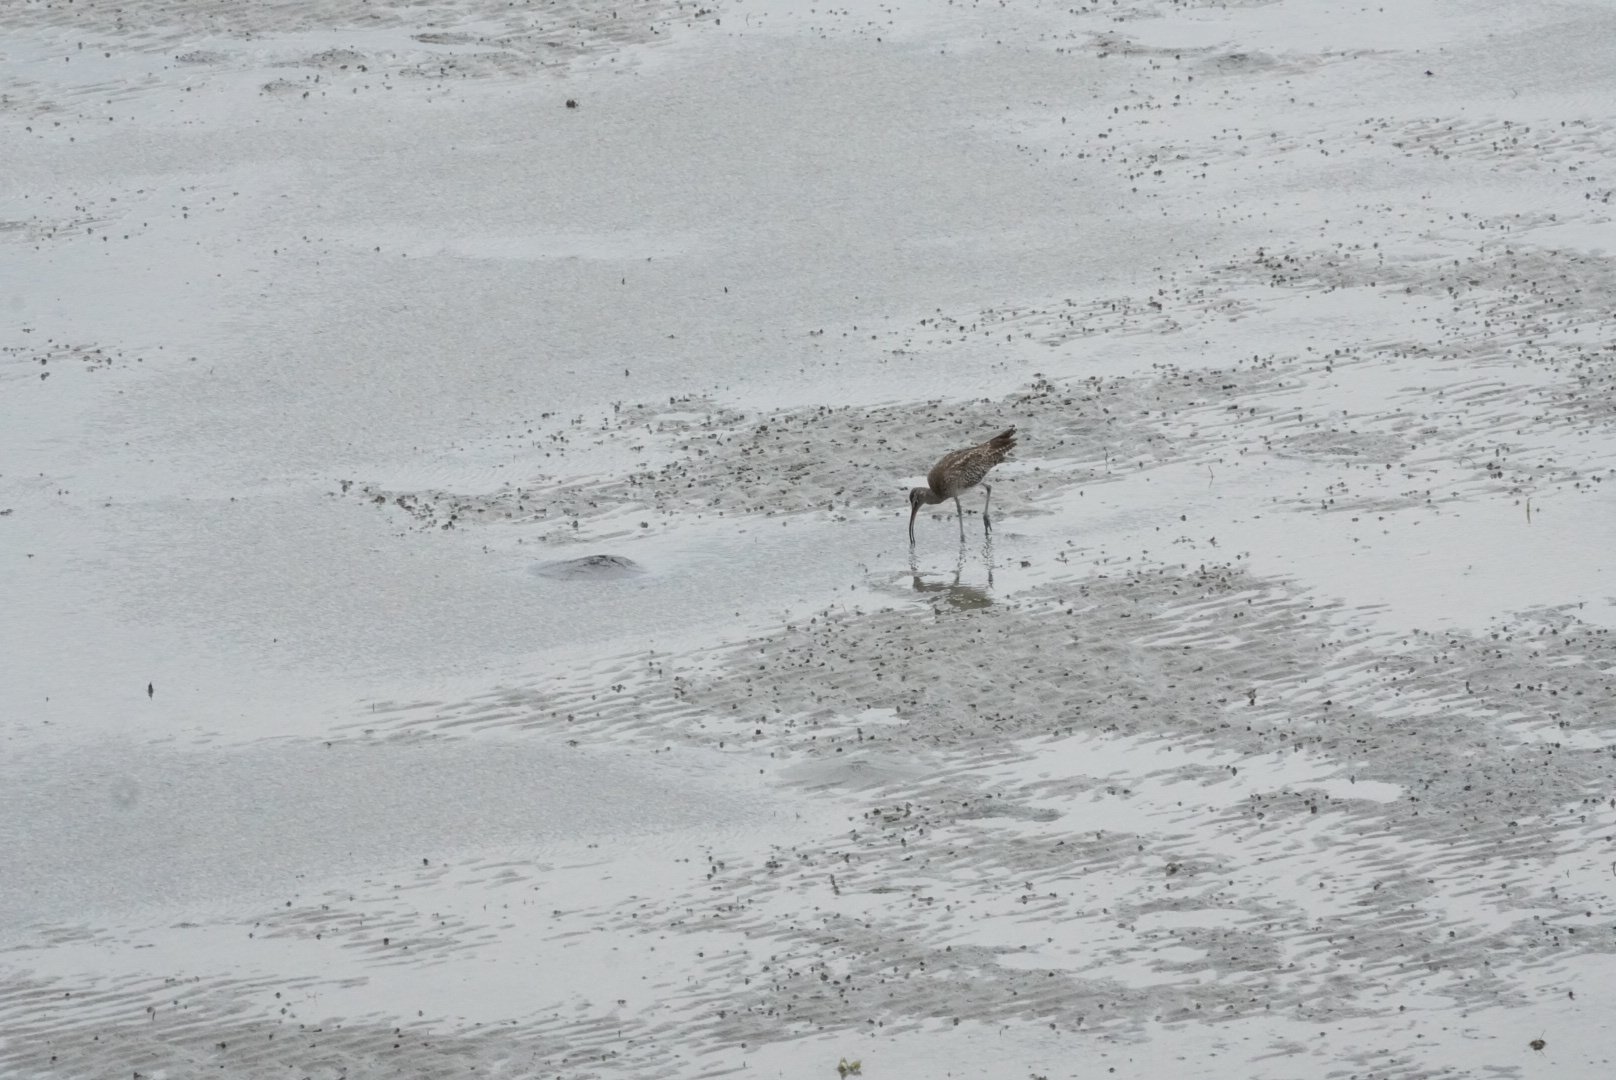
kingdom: Animalia
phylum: Chordata
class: Aves
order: Charadriiformes
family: Scolopacidae
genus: Numenius
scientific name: Numenius phaeopus
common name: Whimbrel
